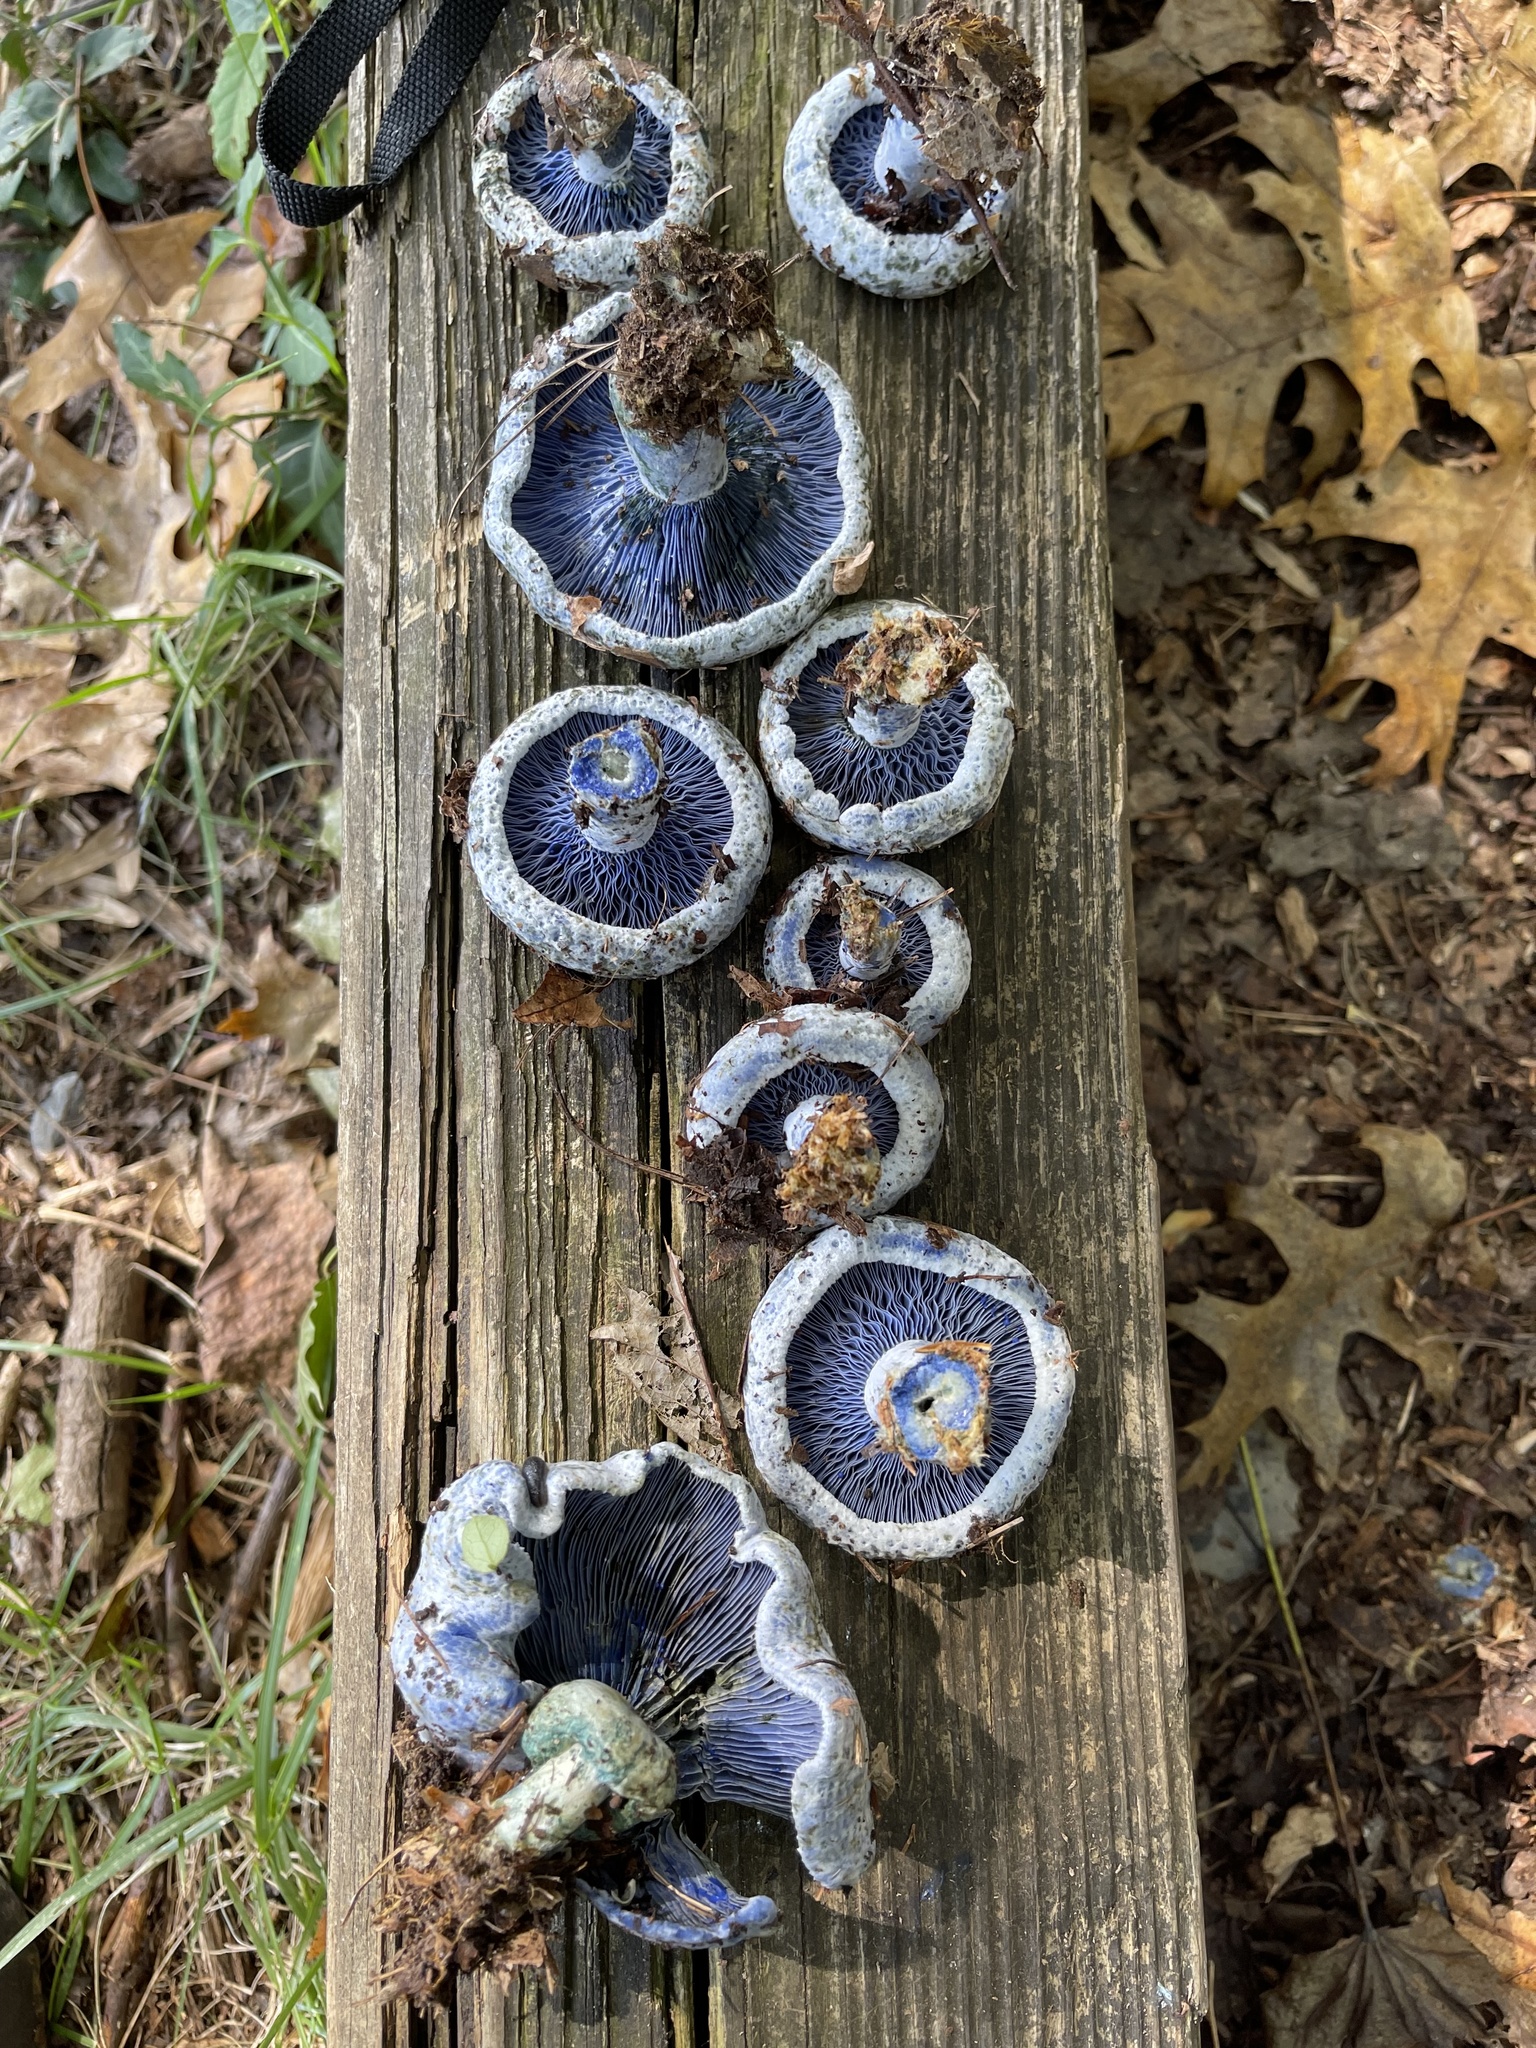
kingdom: Fungi
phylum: Basidiomycota
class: Agaricomycetes
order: Russulales
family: Russulaceae
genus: Lactarius
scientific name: Lactarius indigo
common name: Indigo milk cap
